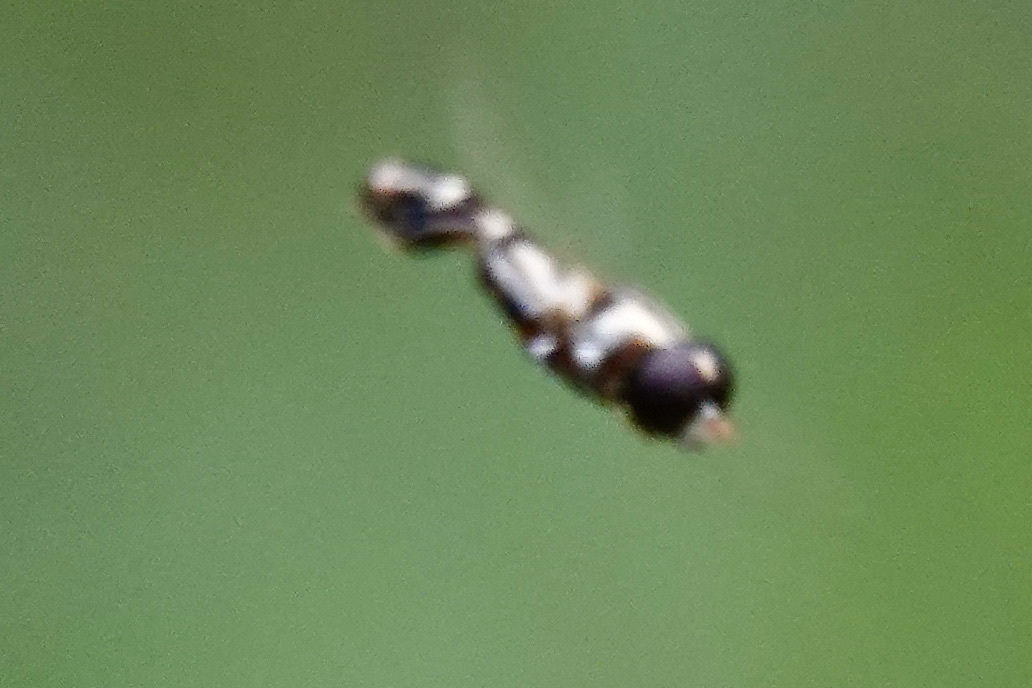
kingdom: Animalia
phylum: Arthropoda
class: Insecta
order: Diptera
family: Syrphidae
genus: Syritta
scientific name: Syritta
